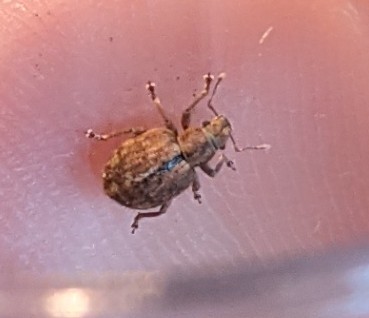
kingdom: Animalia
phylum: Arthropoda
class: Insecta
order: Coleoptera
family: Curculionidae
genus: Strophosoma
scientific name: Strophosoma melanogrammum
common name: Weevil
